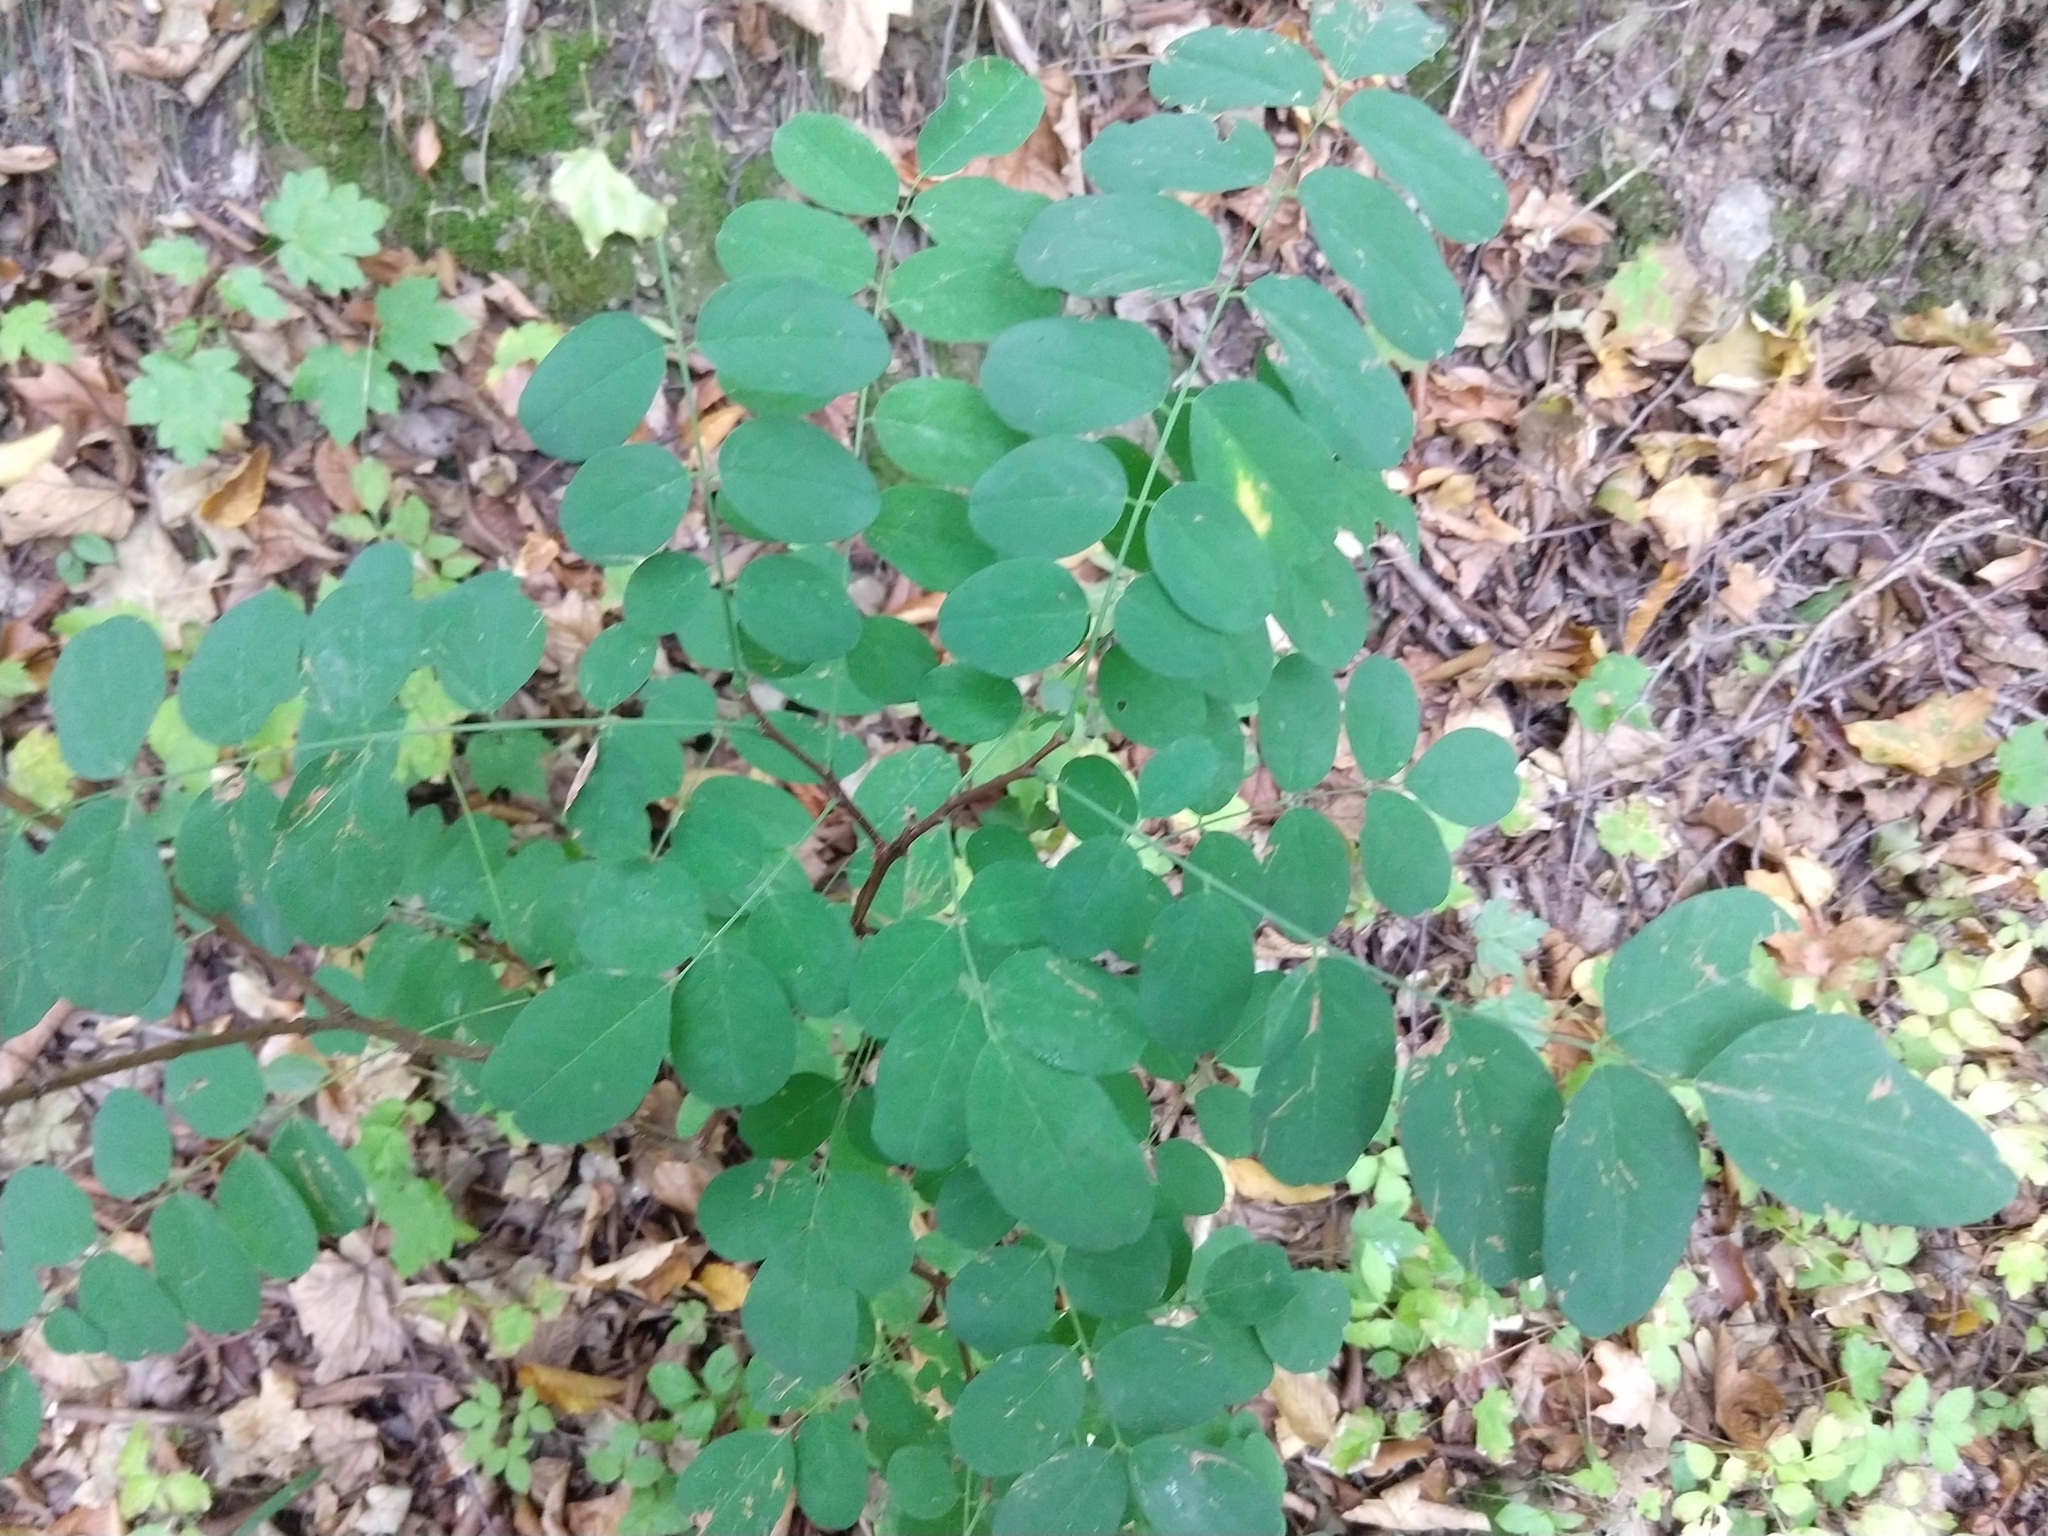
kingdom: Plantae
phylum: Tracheophyta
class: Magnoliopsida
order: Fabales
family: Fabaceae
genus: Robinia
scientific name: Robinia pseudoacacia
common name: Black locust
